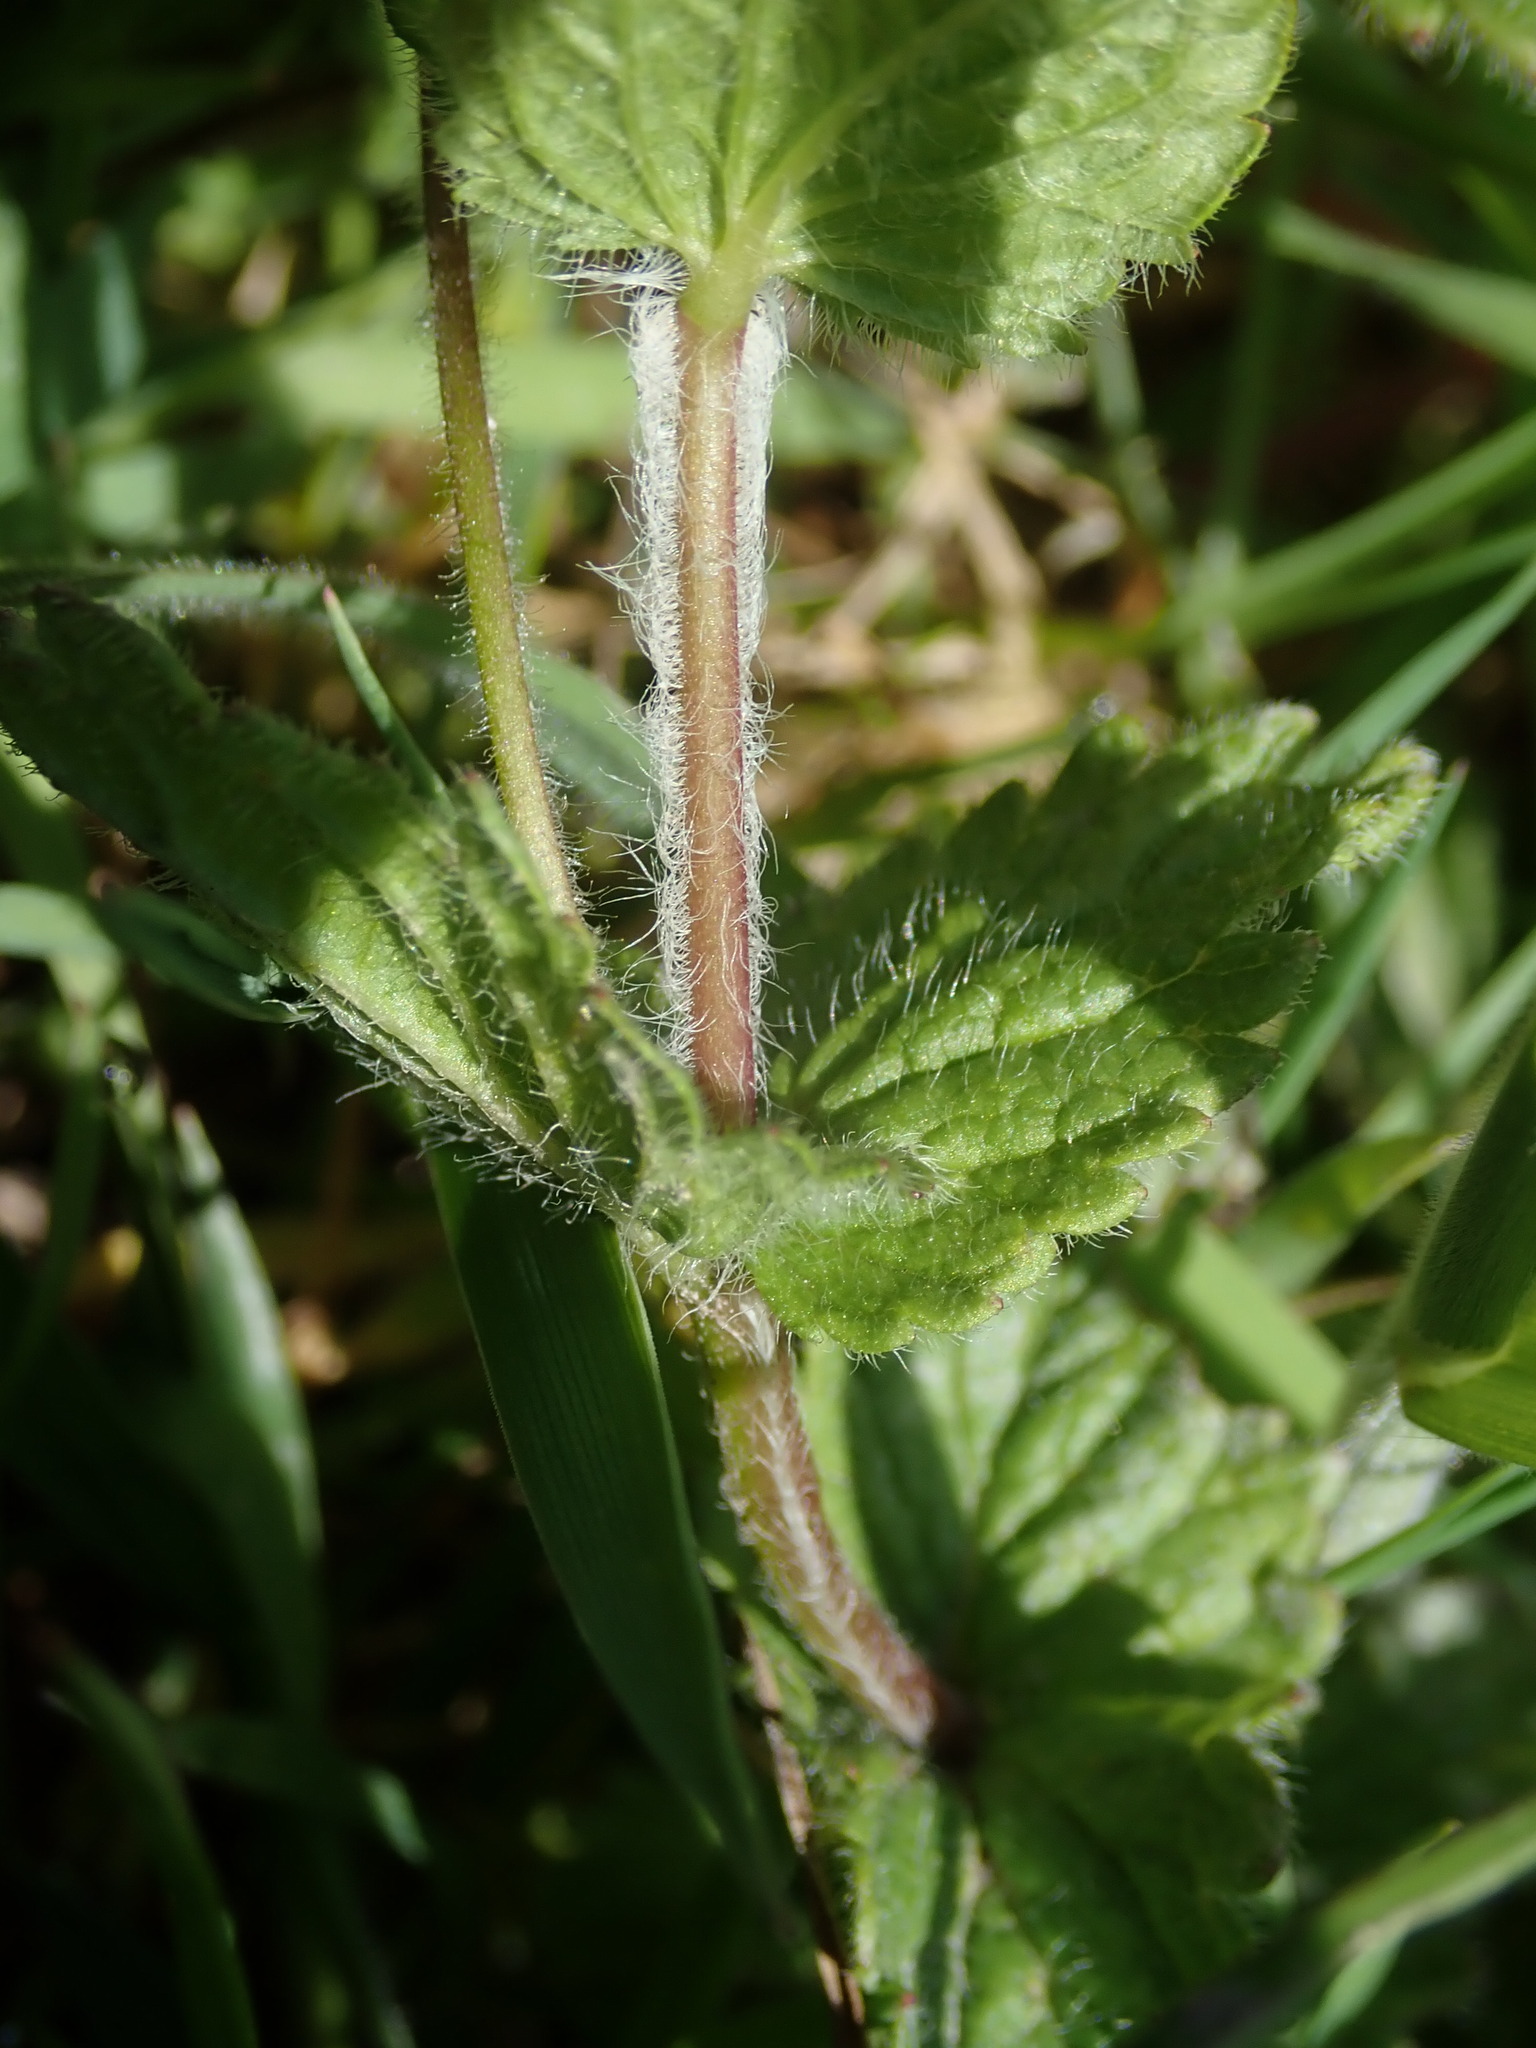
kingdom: Plantae
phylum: Tracheophyta
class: Magnoliopsida
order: Lamiales
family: Plantaginaceae
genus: Veronica
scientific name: Veronica chamaedrys
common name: Germander speedwell
